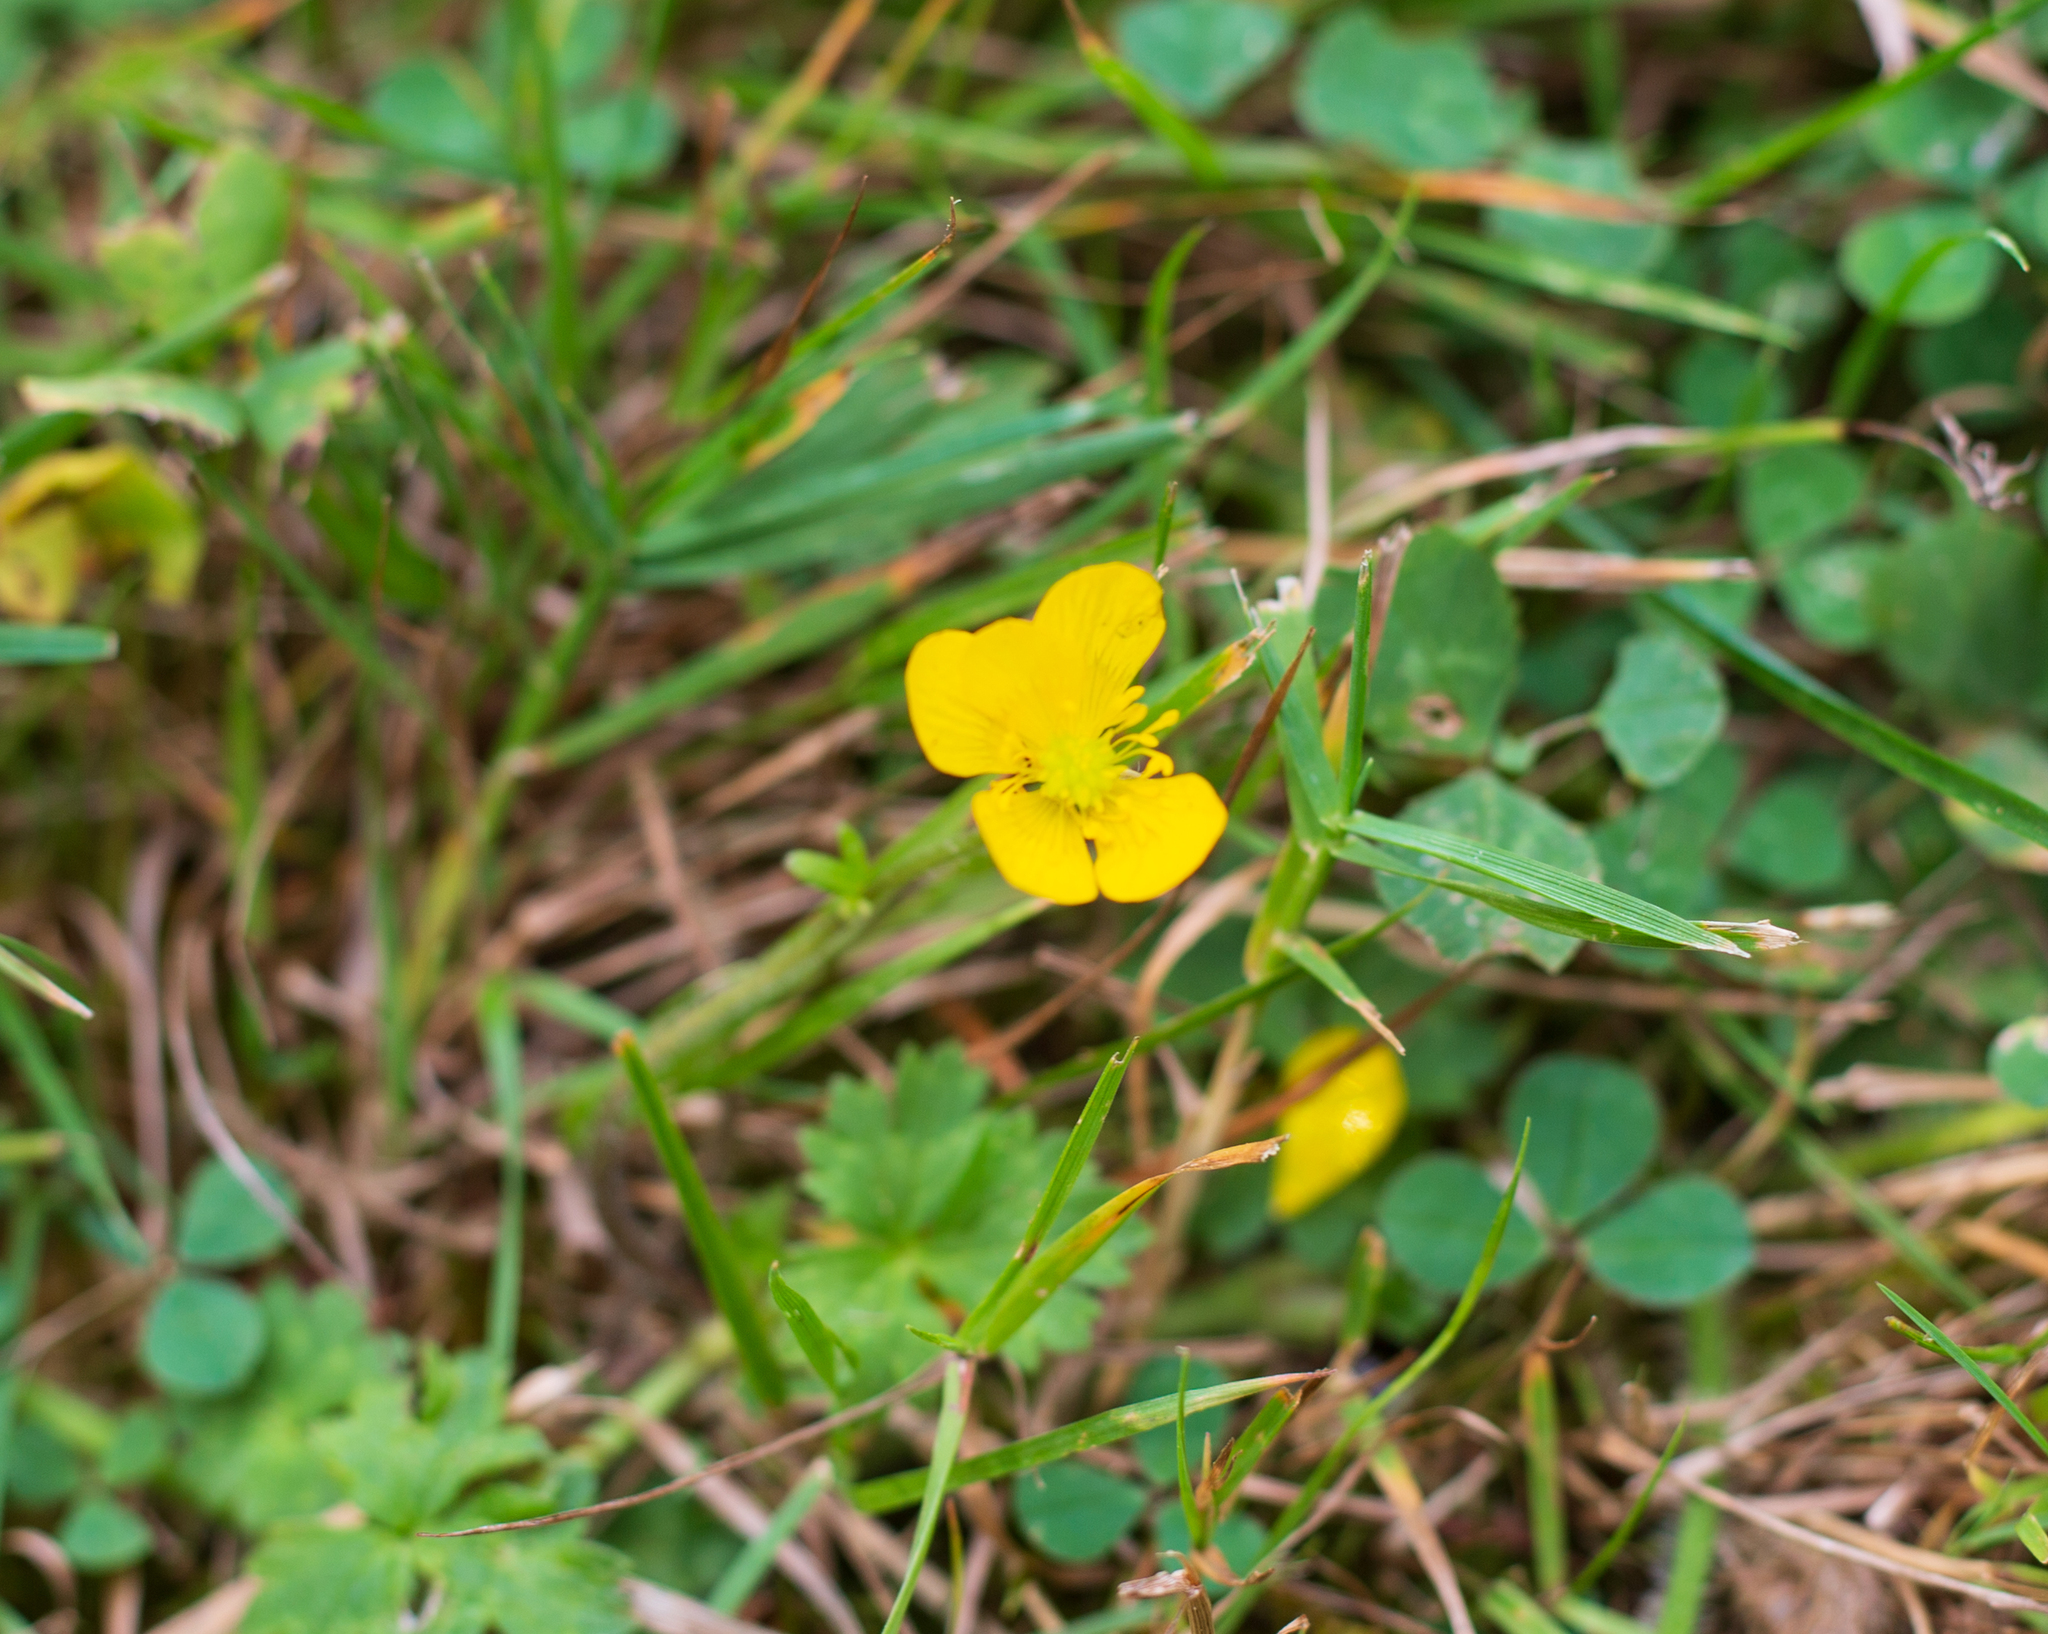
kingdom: Plantae
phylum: Tracheophyta
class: Magnoliopsida
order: Ranunculales
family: Ranunculaceae
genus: Ranunculus
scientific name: Ranunculus repens
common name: Creeping buttercup
